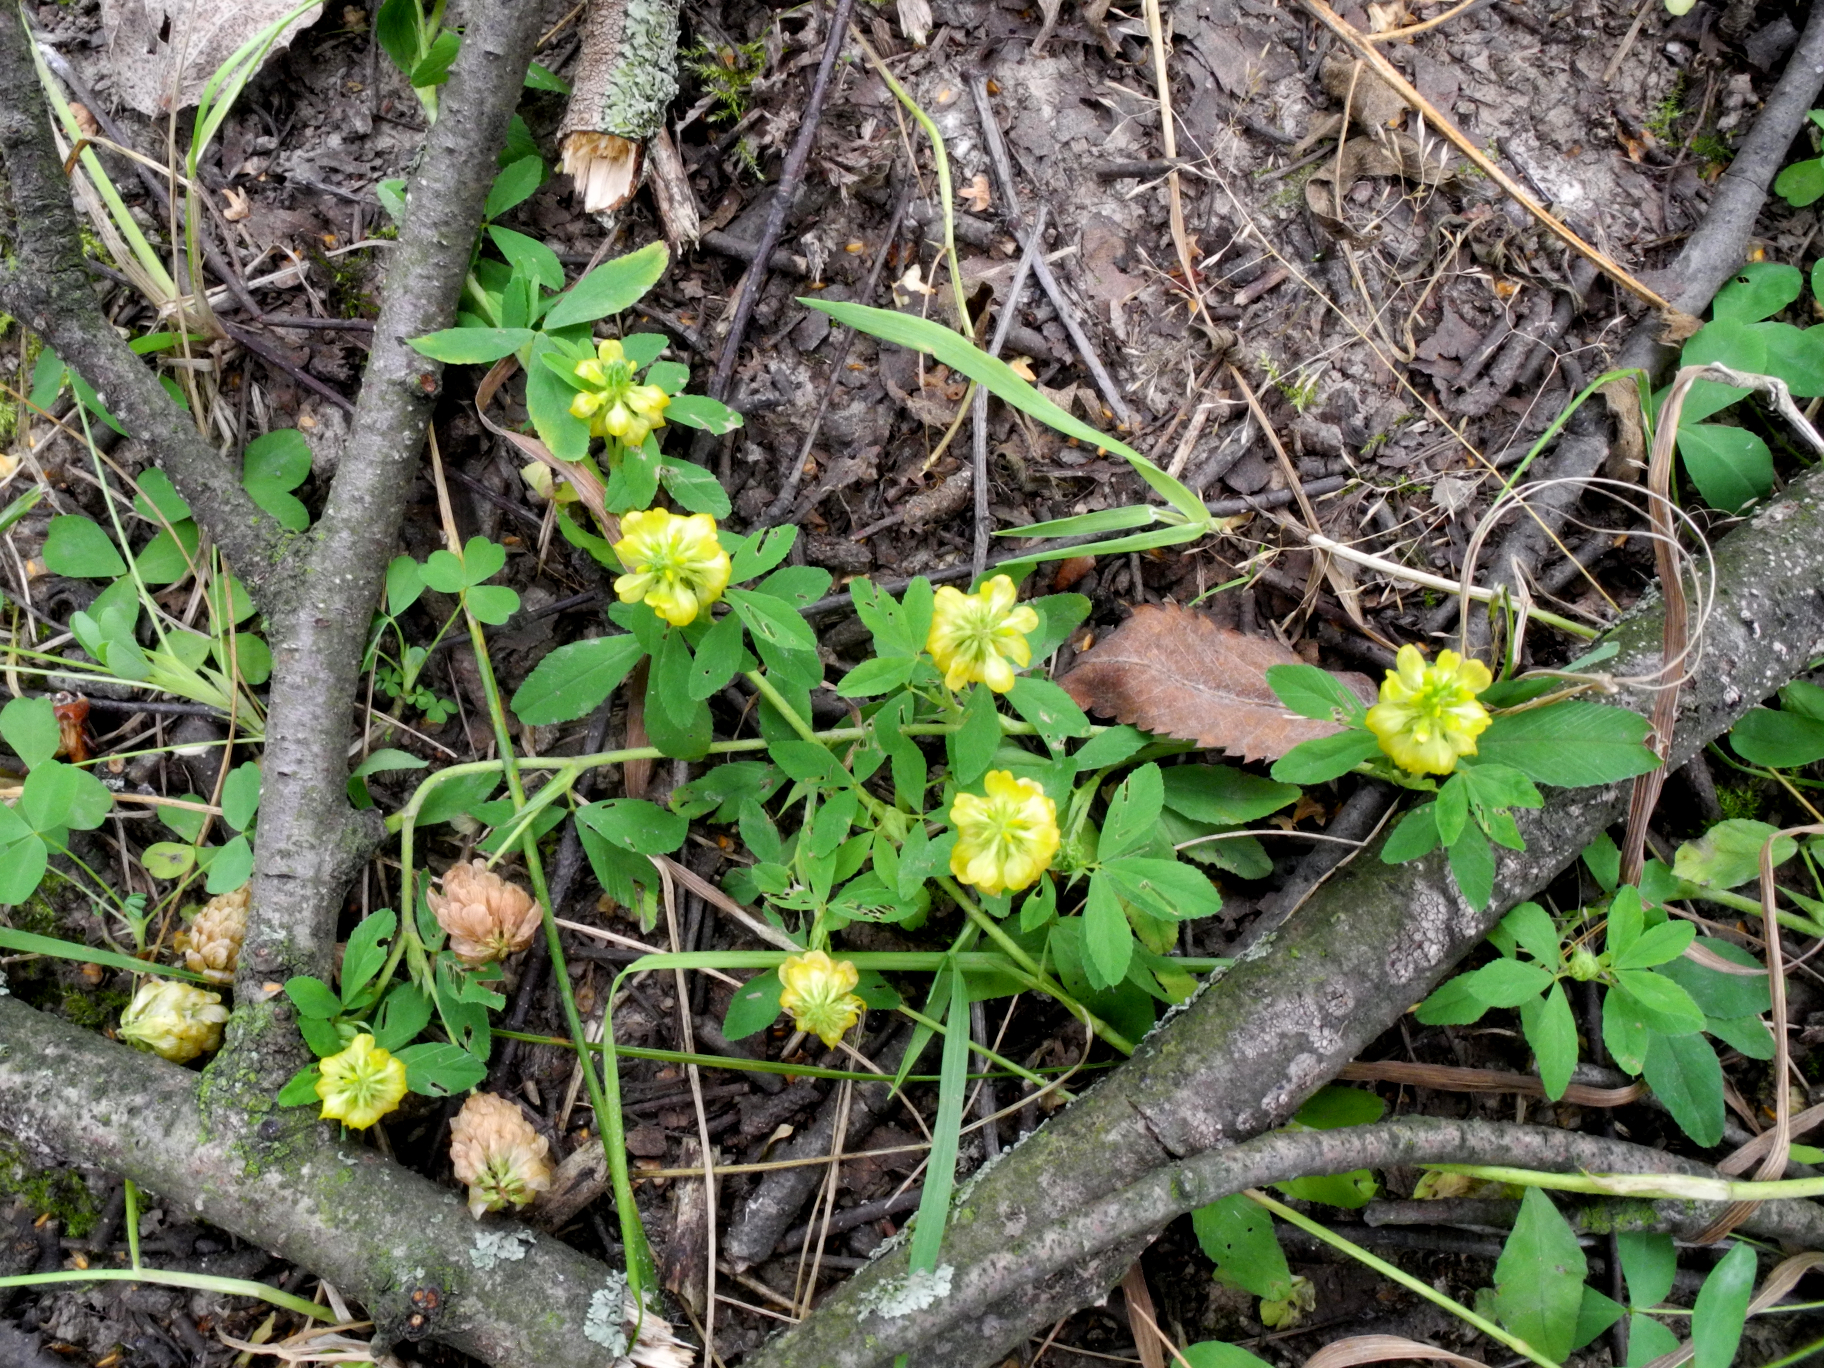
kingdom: Plantae
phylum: Tracheophyta
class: Magnoliopsida
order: Fabales
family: Fabaceae
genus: Trifolium
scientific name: Trifolium aureum
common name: Golden clover
